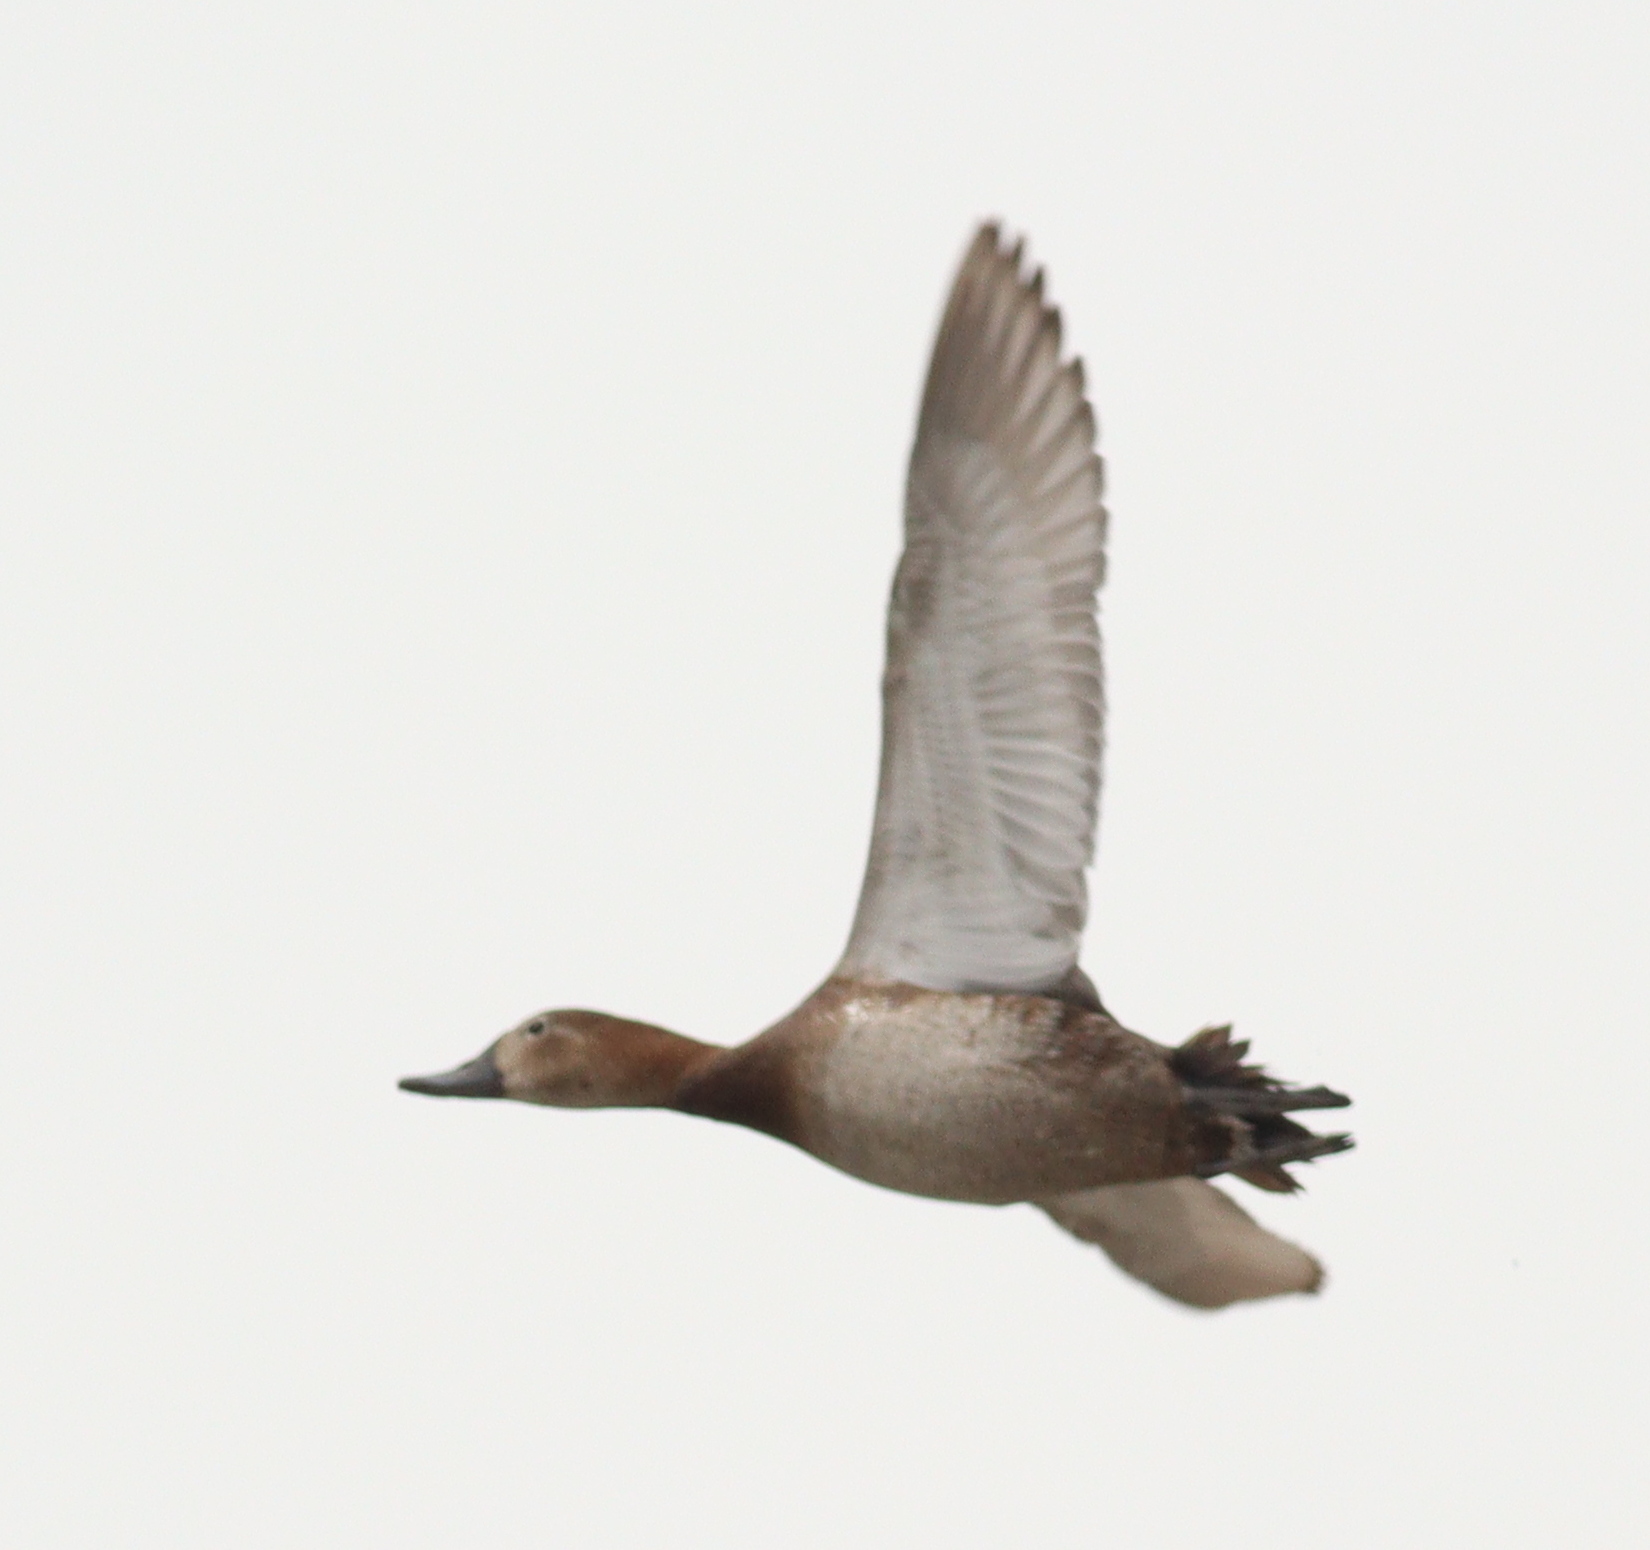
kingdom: Animalia
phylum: Chordata
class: Aves
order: Anseriformes
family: Anatidae
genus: Aythya
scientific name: Aythya ferina
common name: Common pochard
